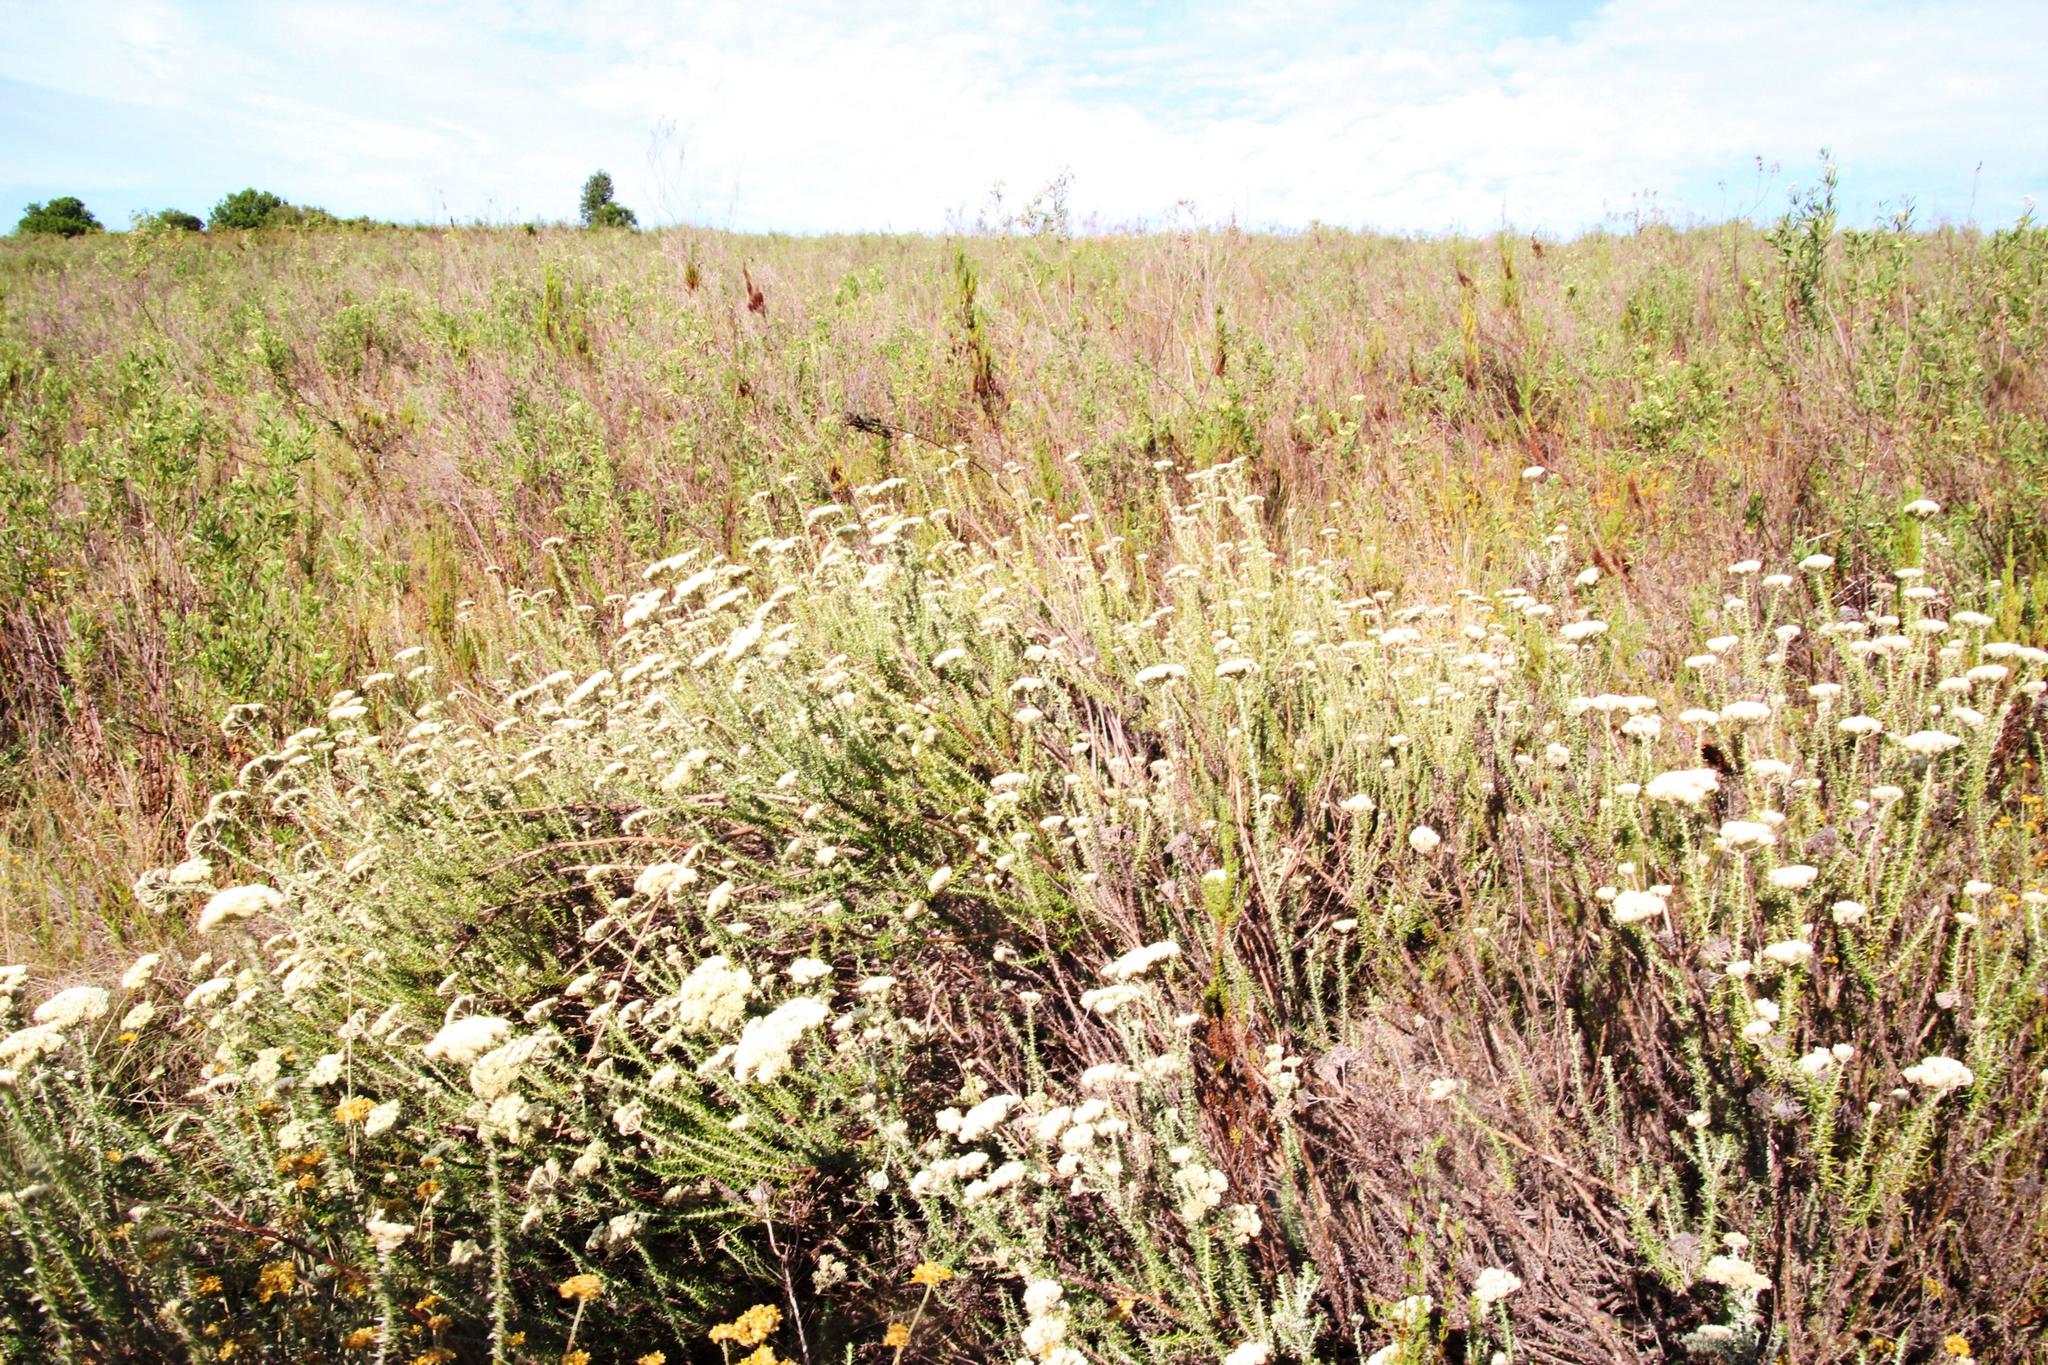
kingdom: Plantae
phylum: Tracheophyta
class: Magnoliopsida
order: Asterales
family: Asteraceae
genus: Metalasia
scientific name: Metalasia densa
